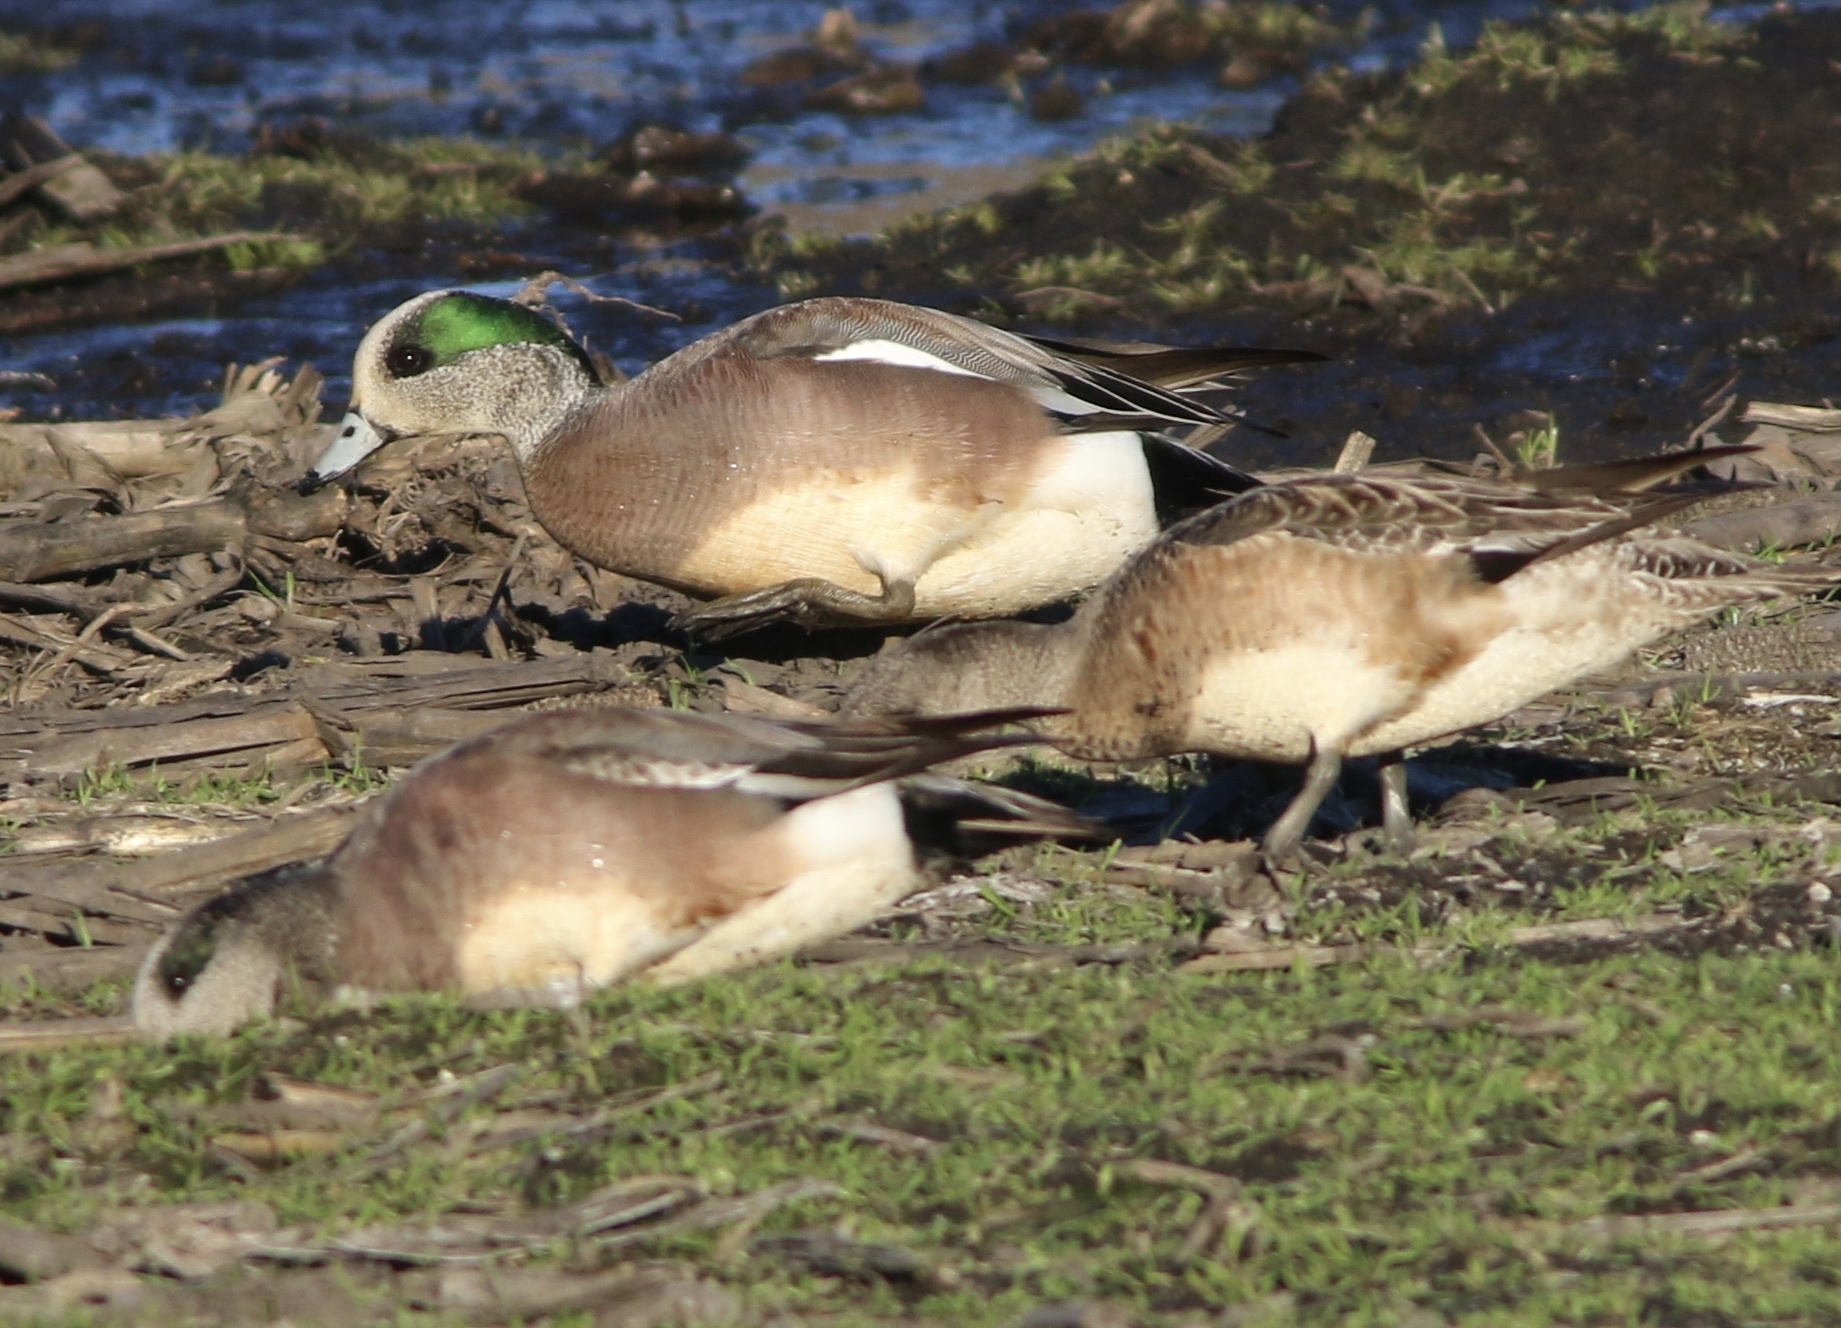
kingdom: Animalia
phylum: Chordata
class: Aves
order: Anseriformes
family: Anatidae
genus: Mareca
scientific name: Mareca americana
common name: American wigeon
